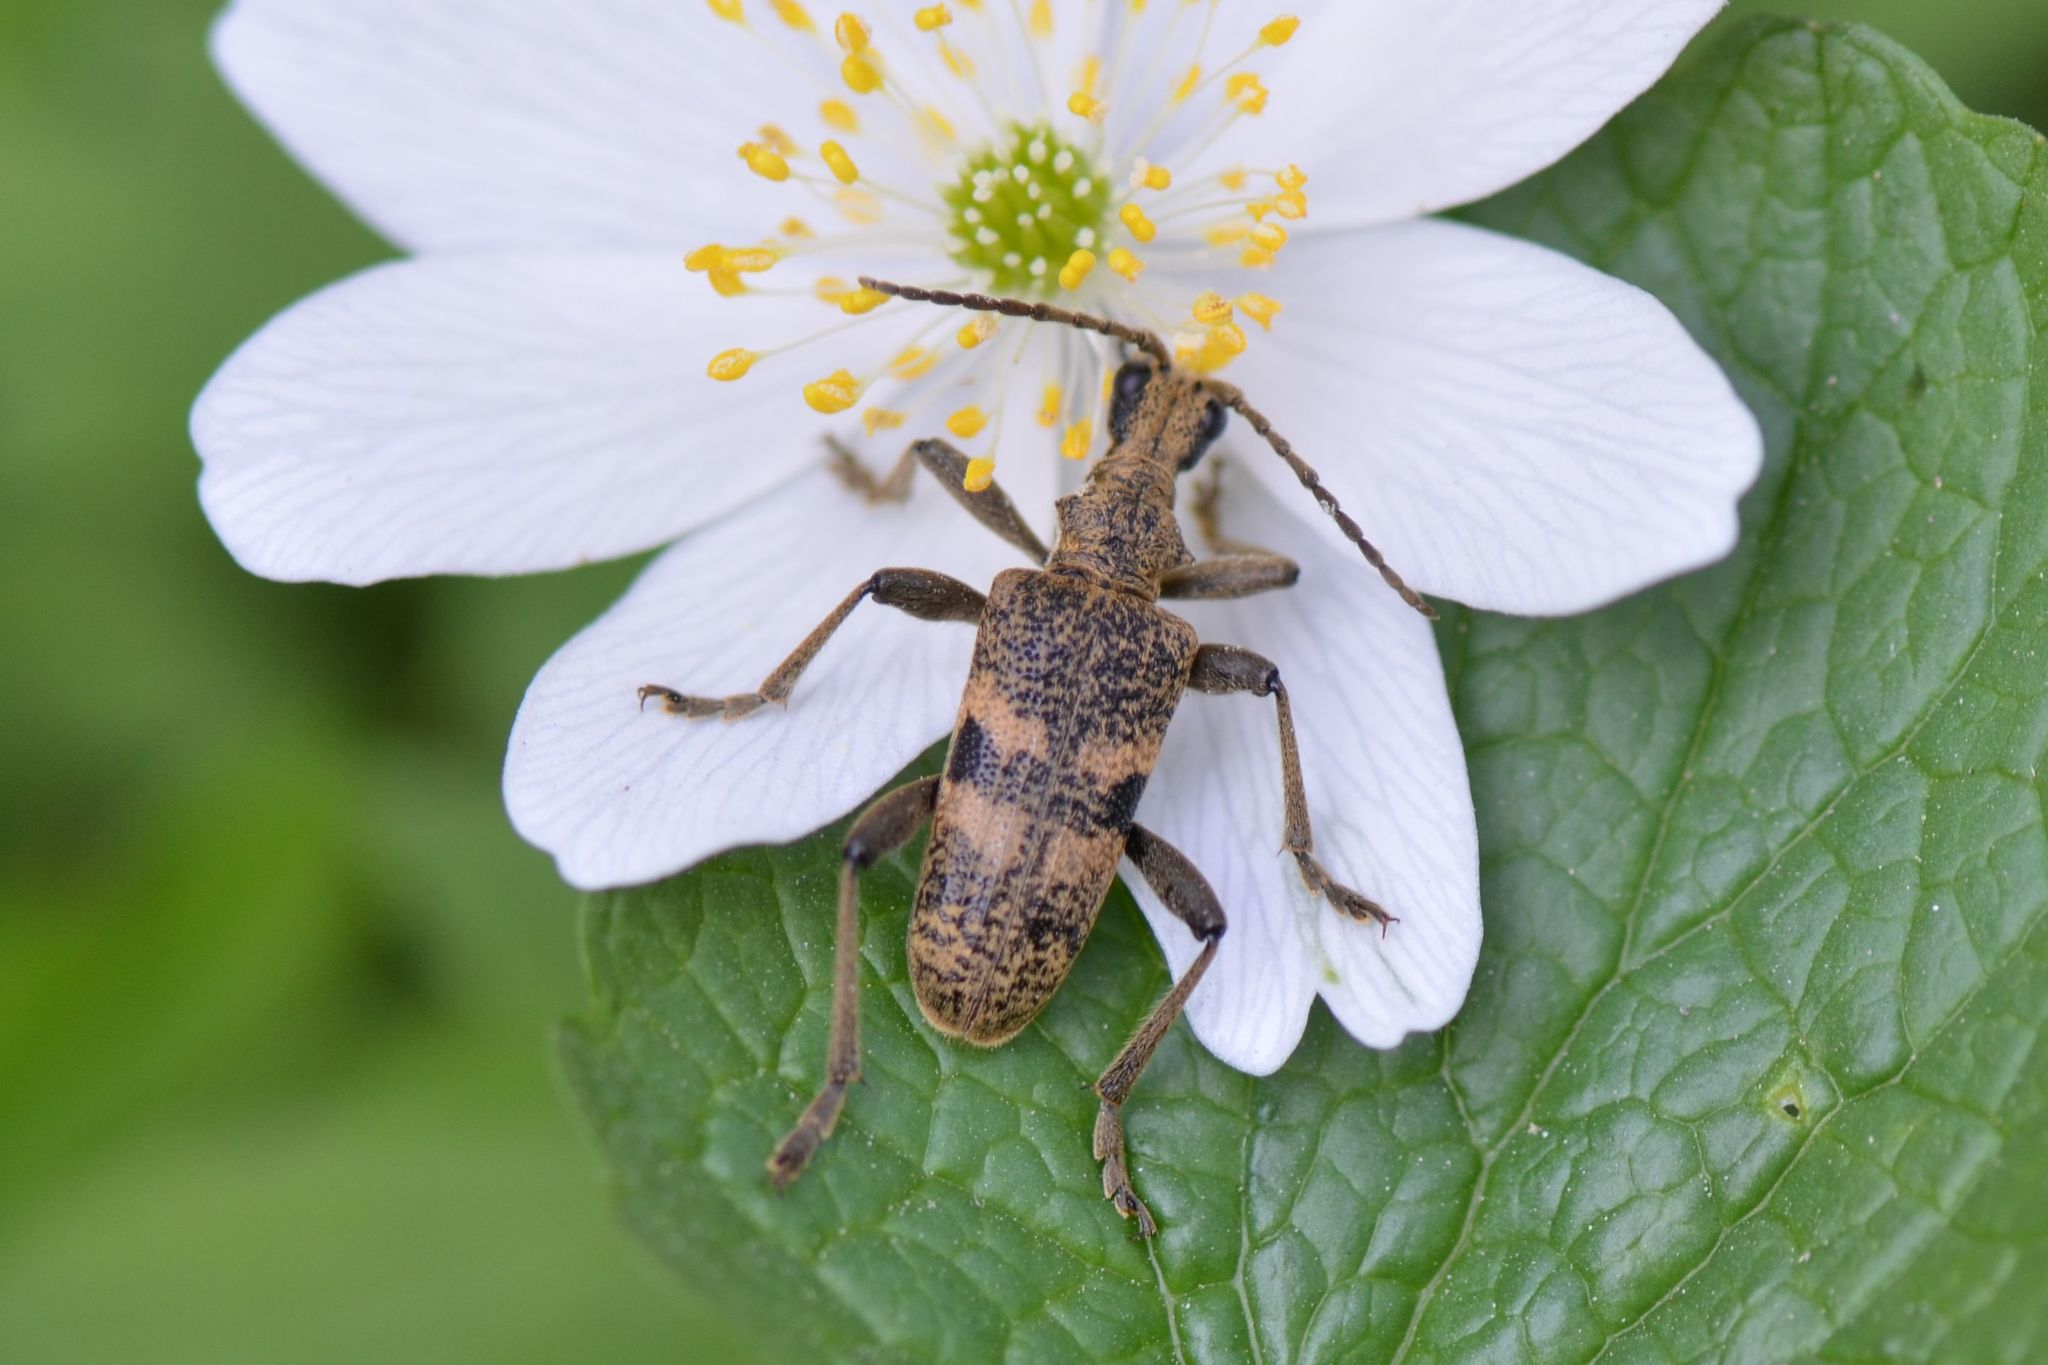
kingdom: Animalia
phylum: Arthropoda
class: Insecta
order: Coleoptera
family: Cerambycidae
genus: Rhagium
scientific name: Rhagium mordax
